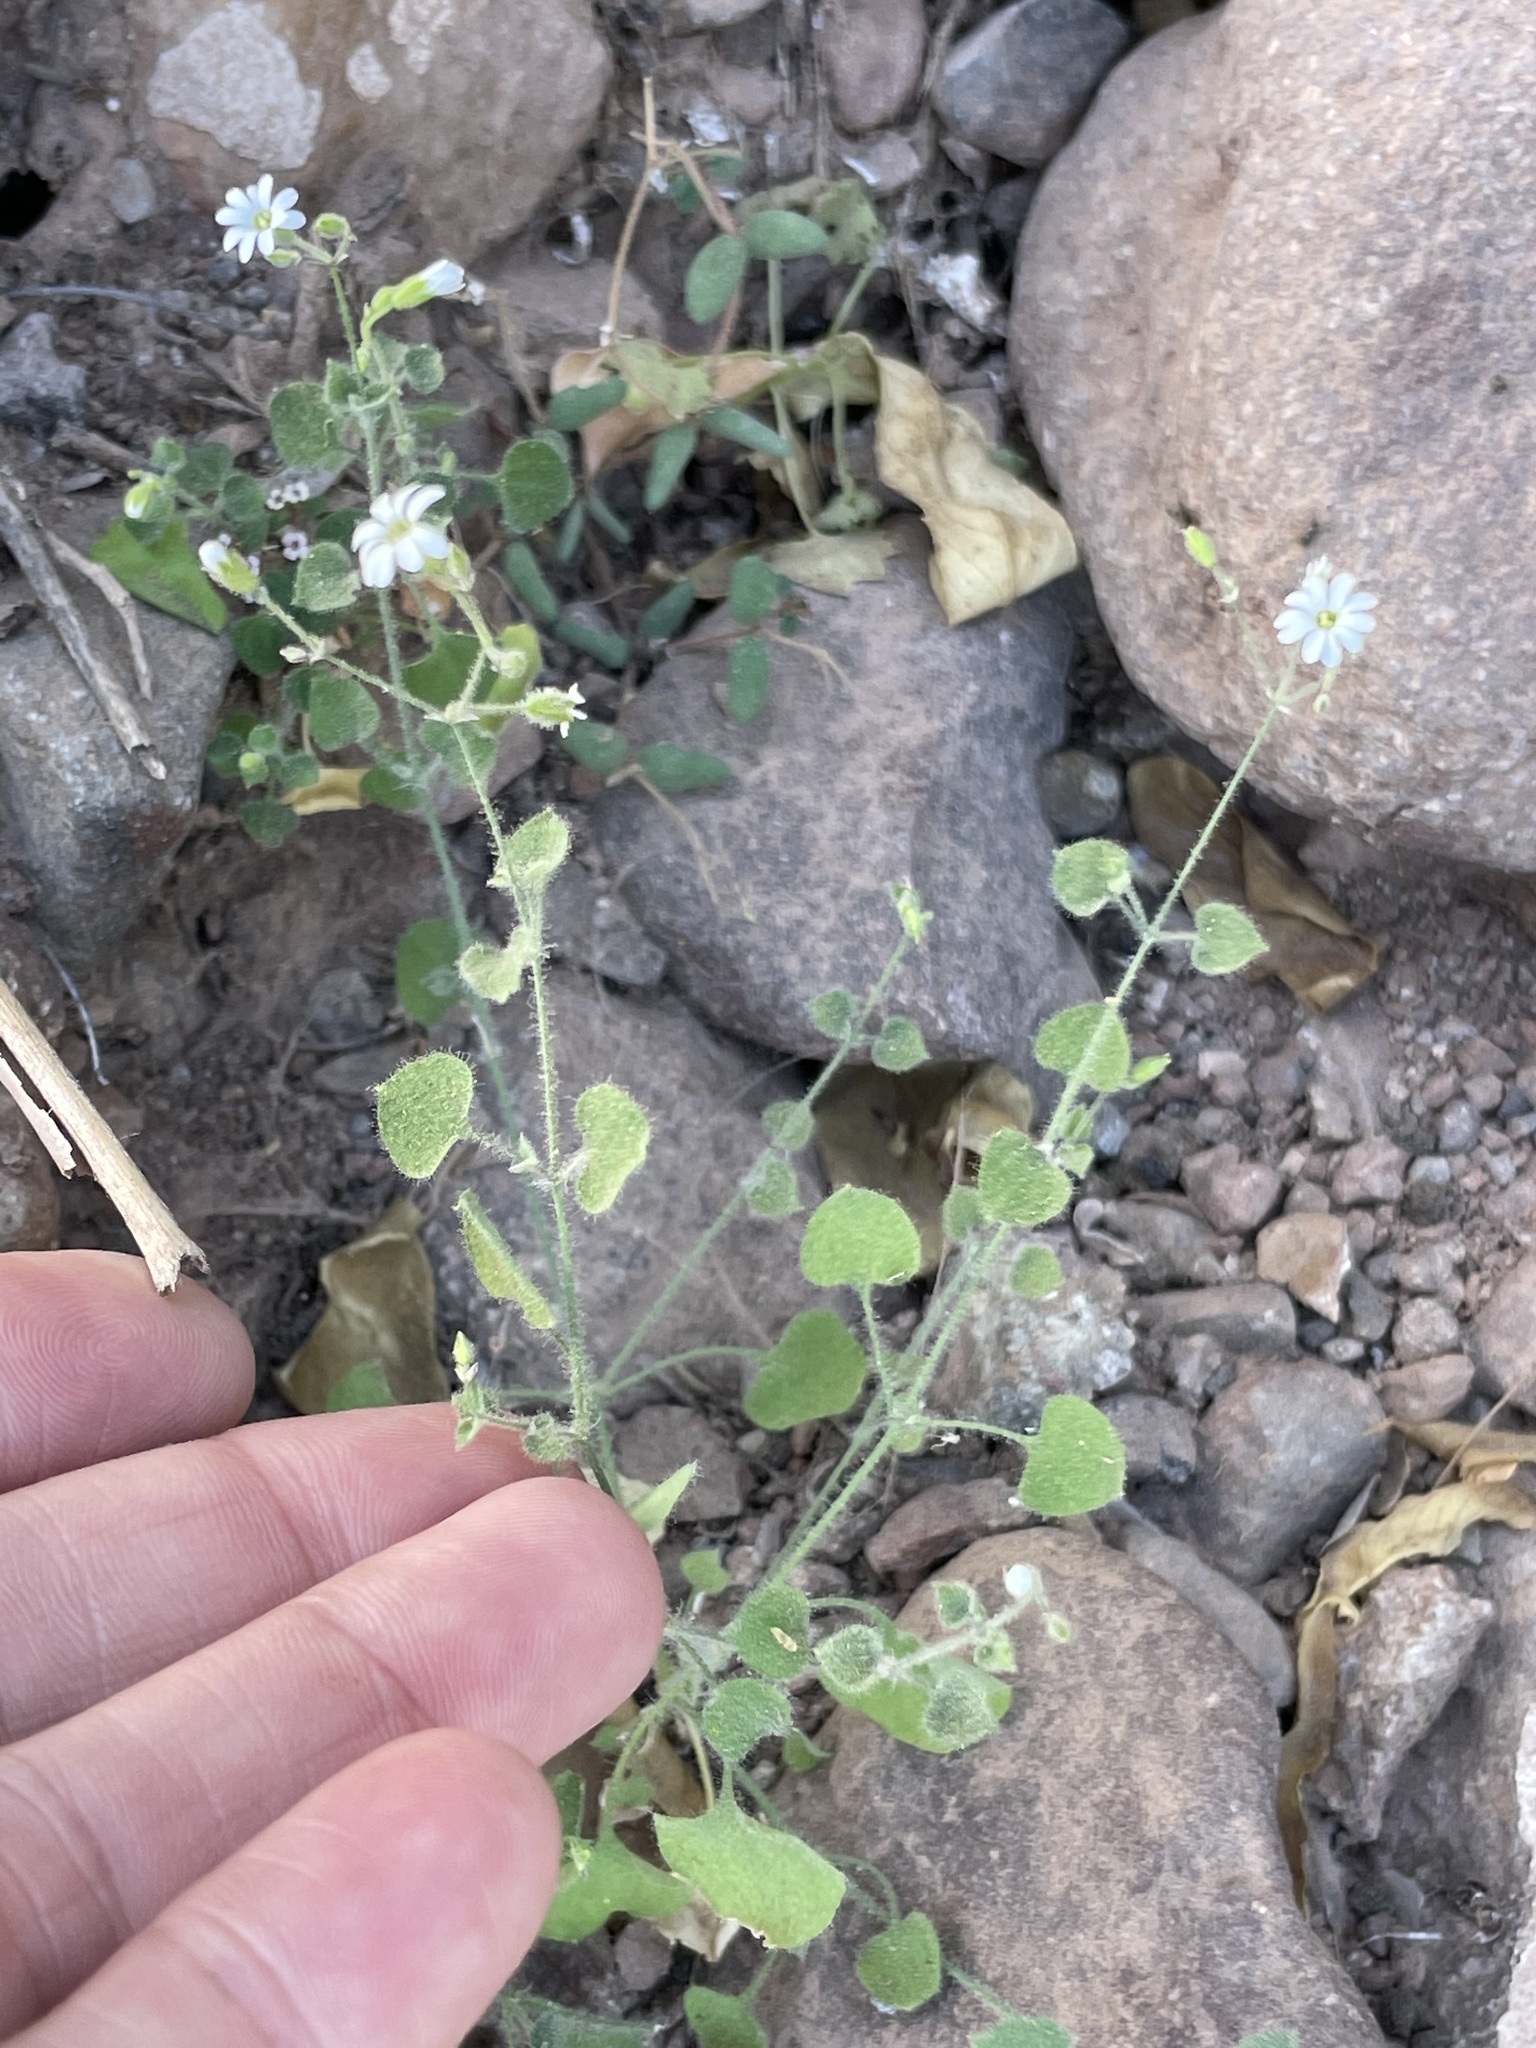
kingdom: Plantae
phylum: Tracheophyta
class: Magnoliopsida
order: Caryophyllales
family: Caryophyllaceae
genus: Drymaria
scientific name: Drymaria debilis
